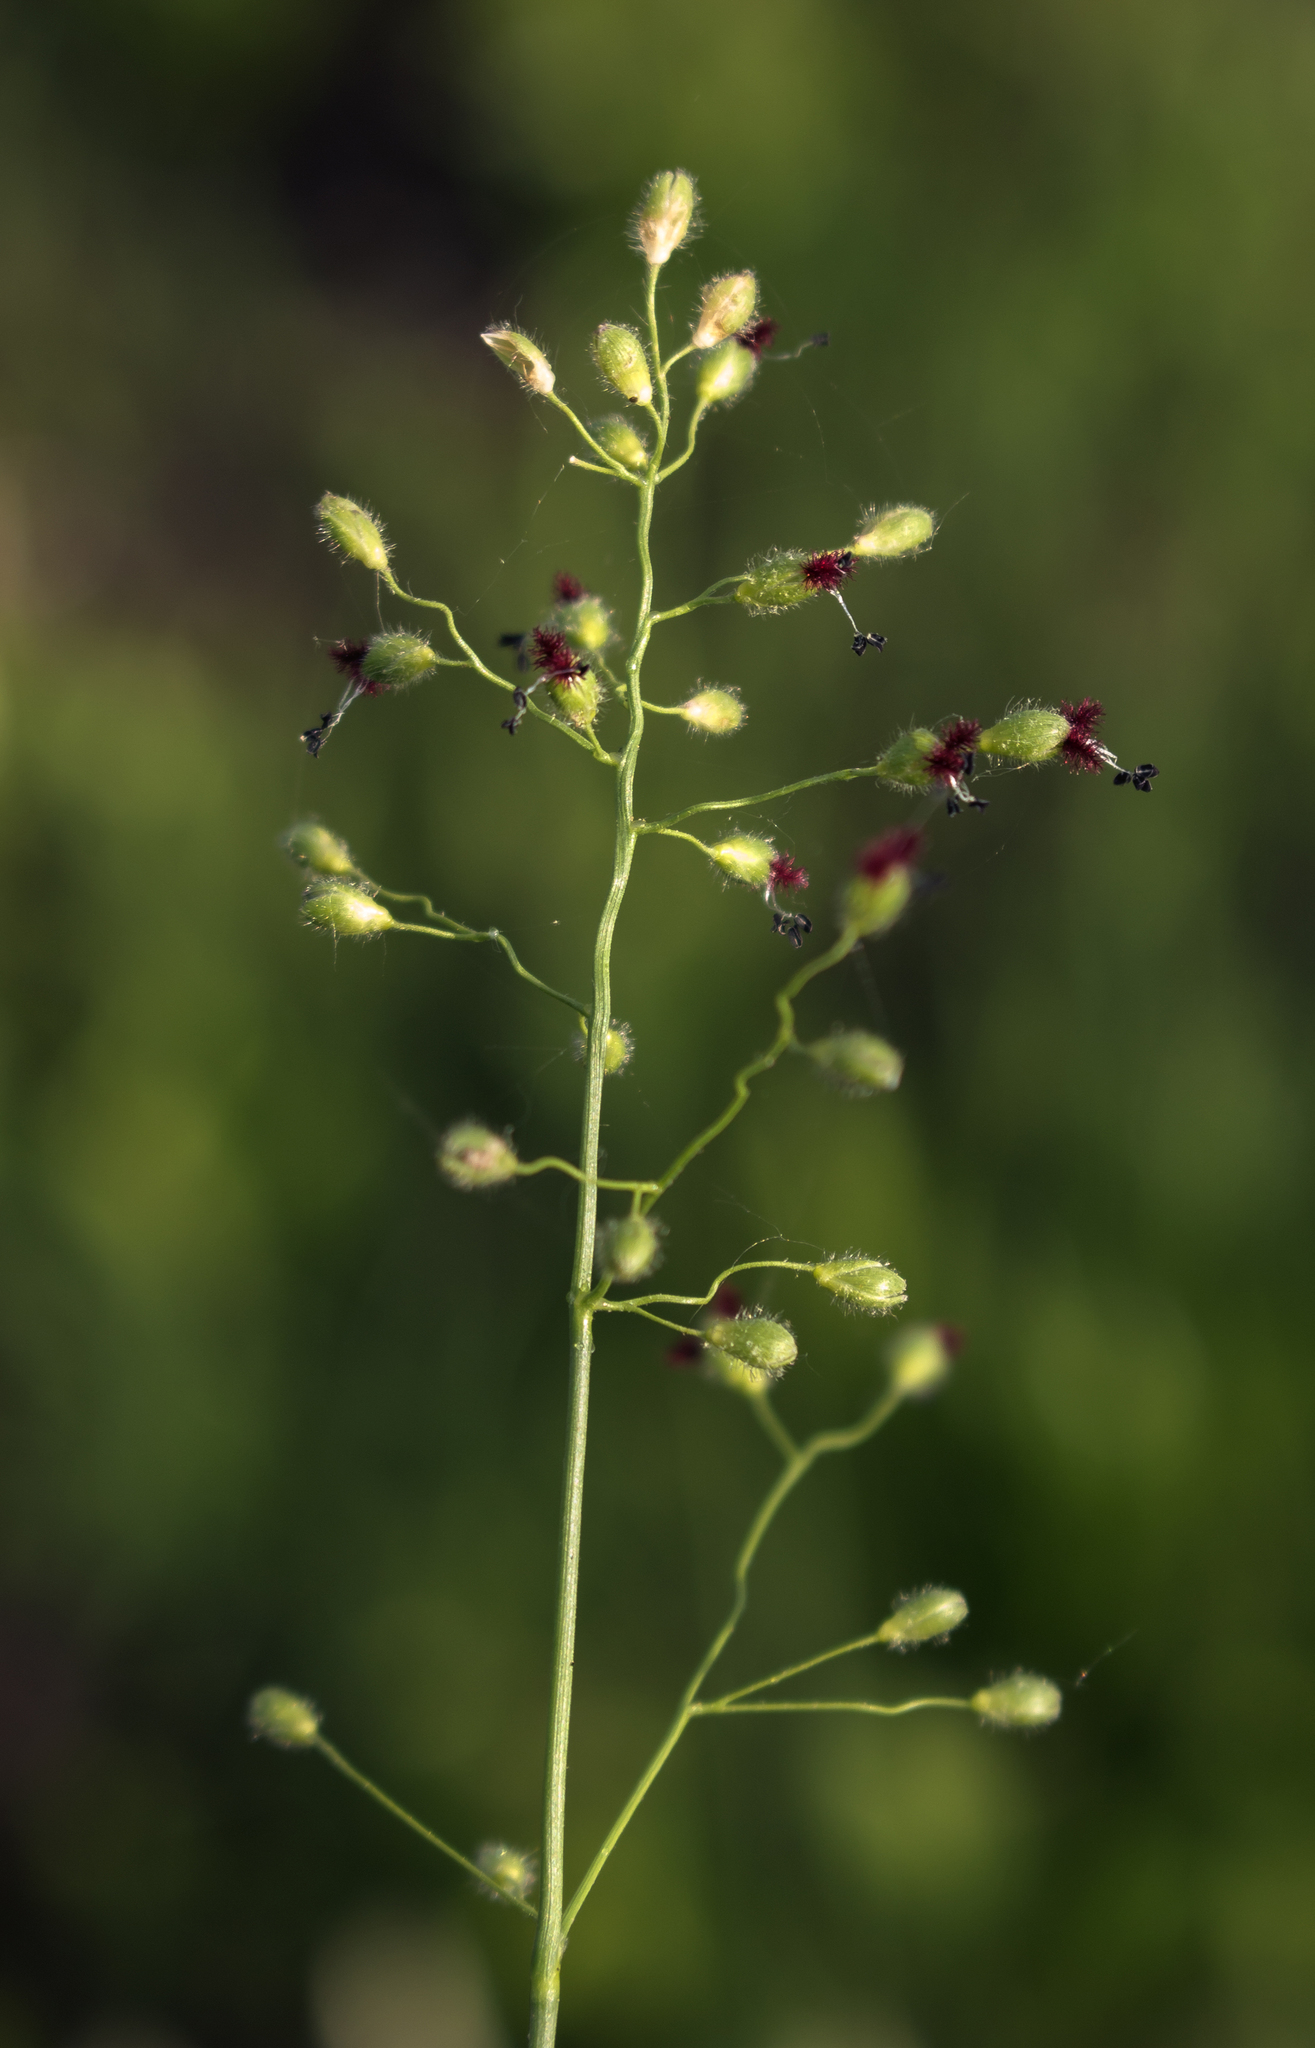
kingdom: Plantae
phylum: Tracheophyta
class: Liliopsida
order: Poales
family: Poaceae
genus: Dichanthelium
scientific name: Dichanthelium leibergii
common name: Leiberg's panic grass
